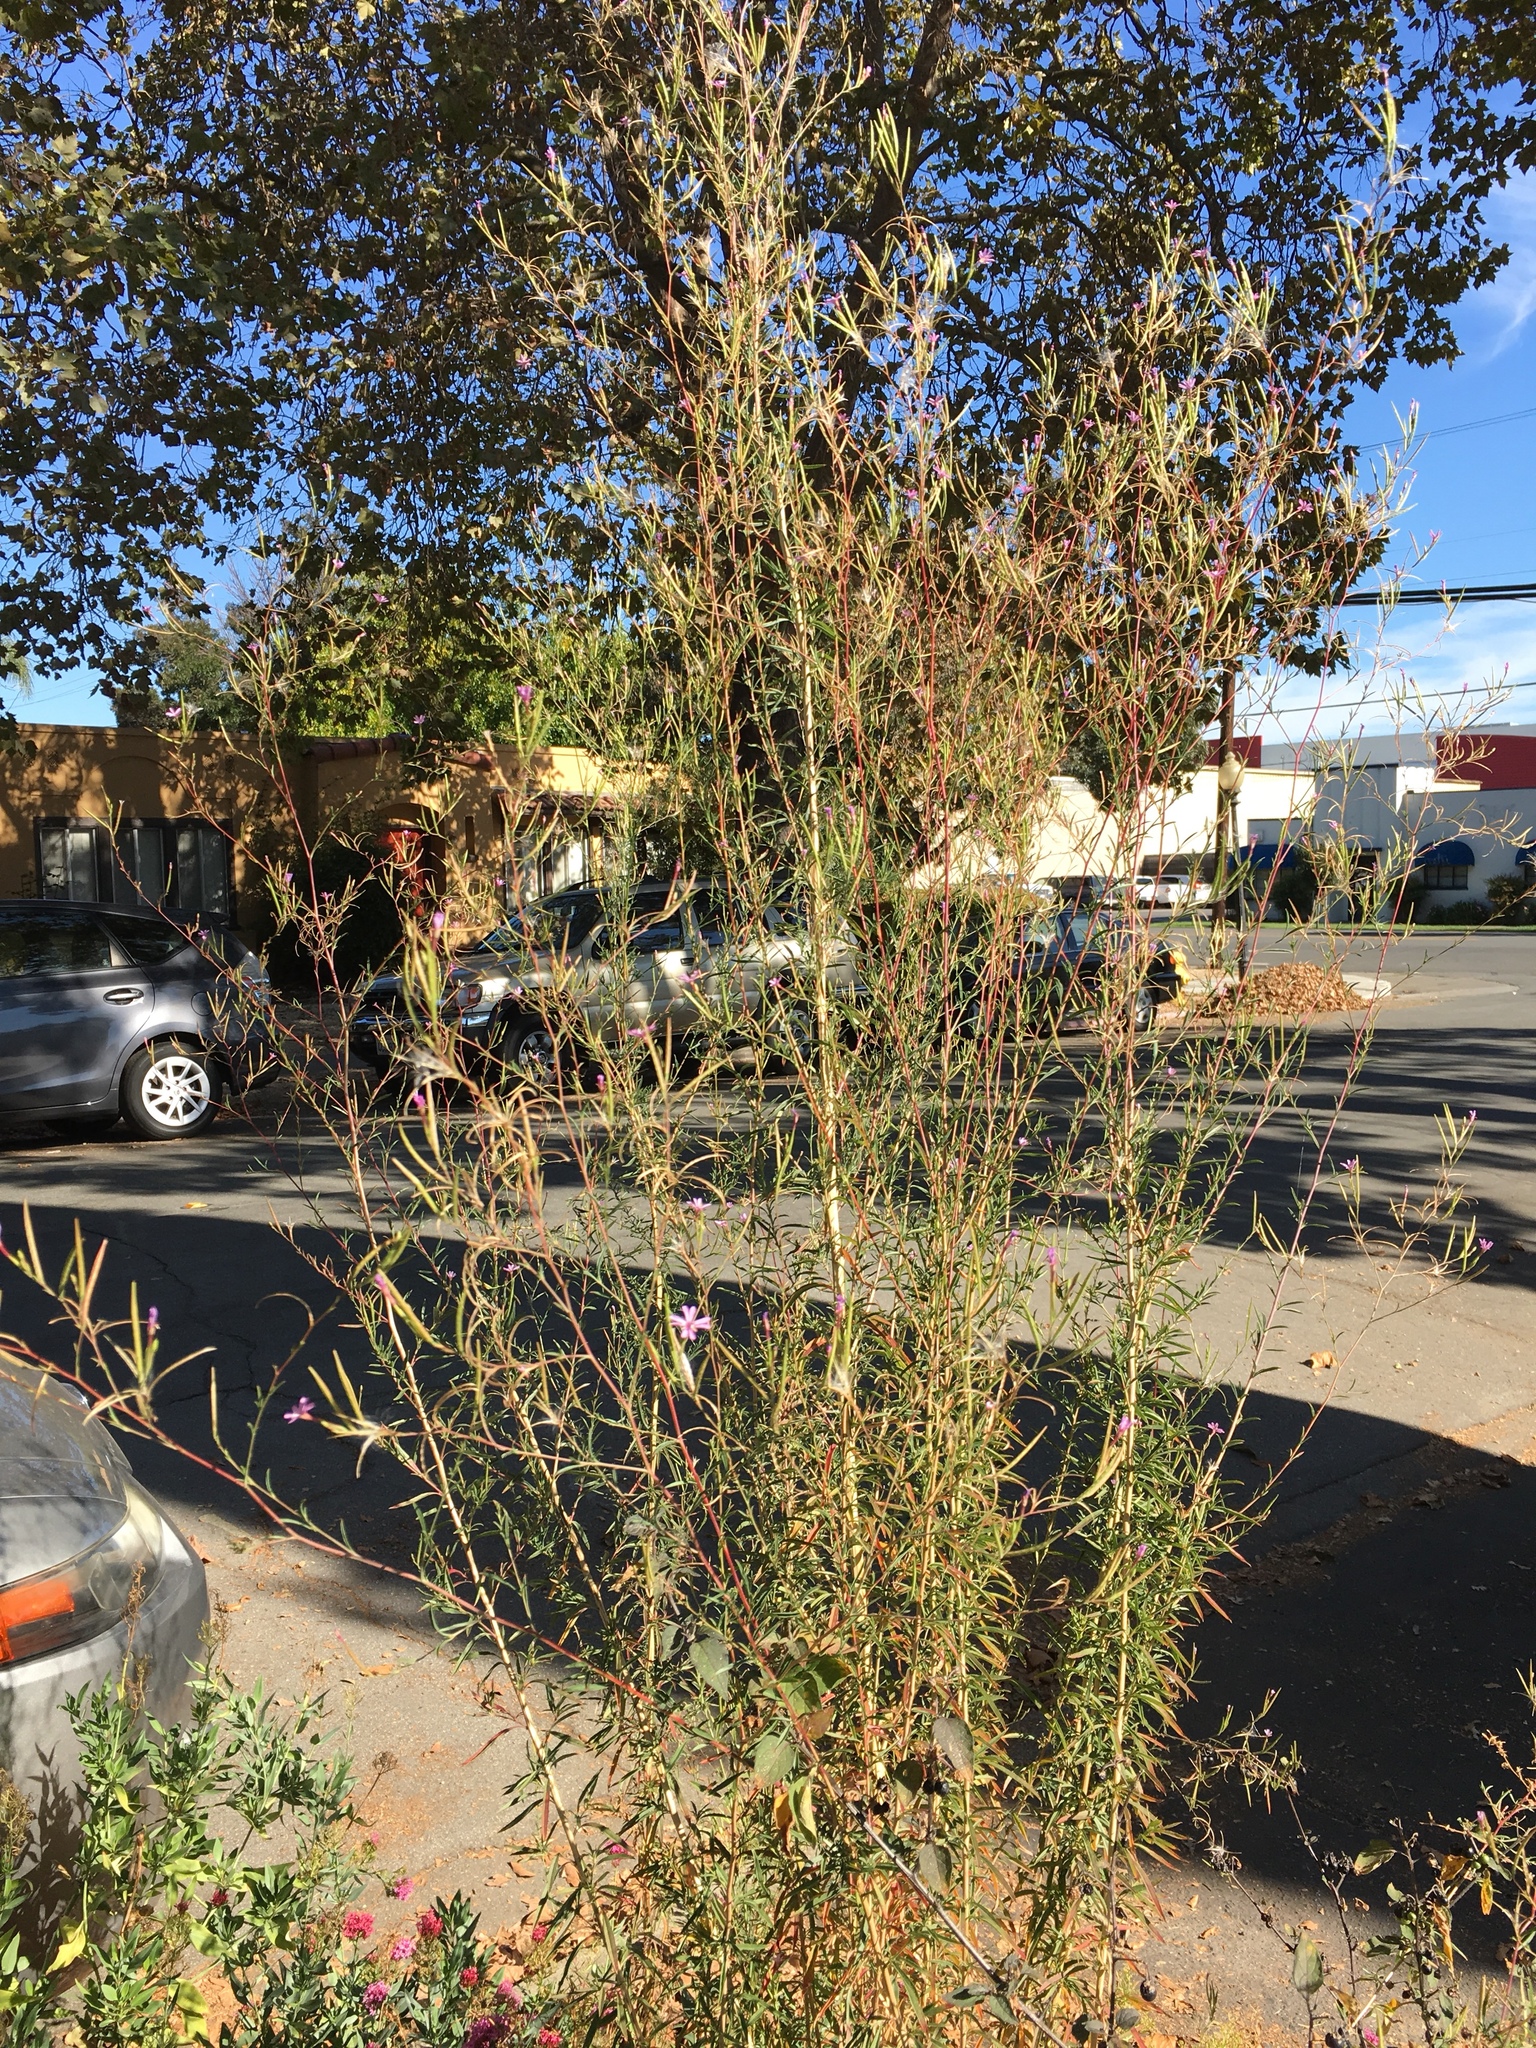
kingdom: Plantae
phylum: Tracheophyta
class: Magnoliopsida
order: Myrtales
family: Onagraceae
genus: Epilobium
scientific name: Epilobium brachycarpum
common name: Annual willowherb
